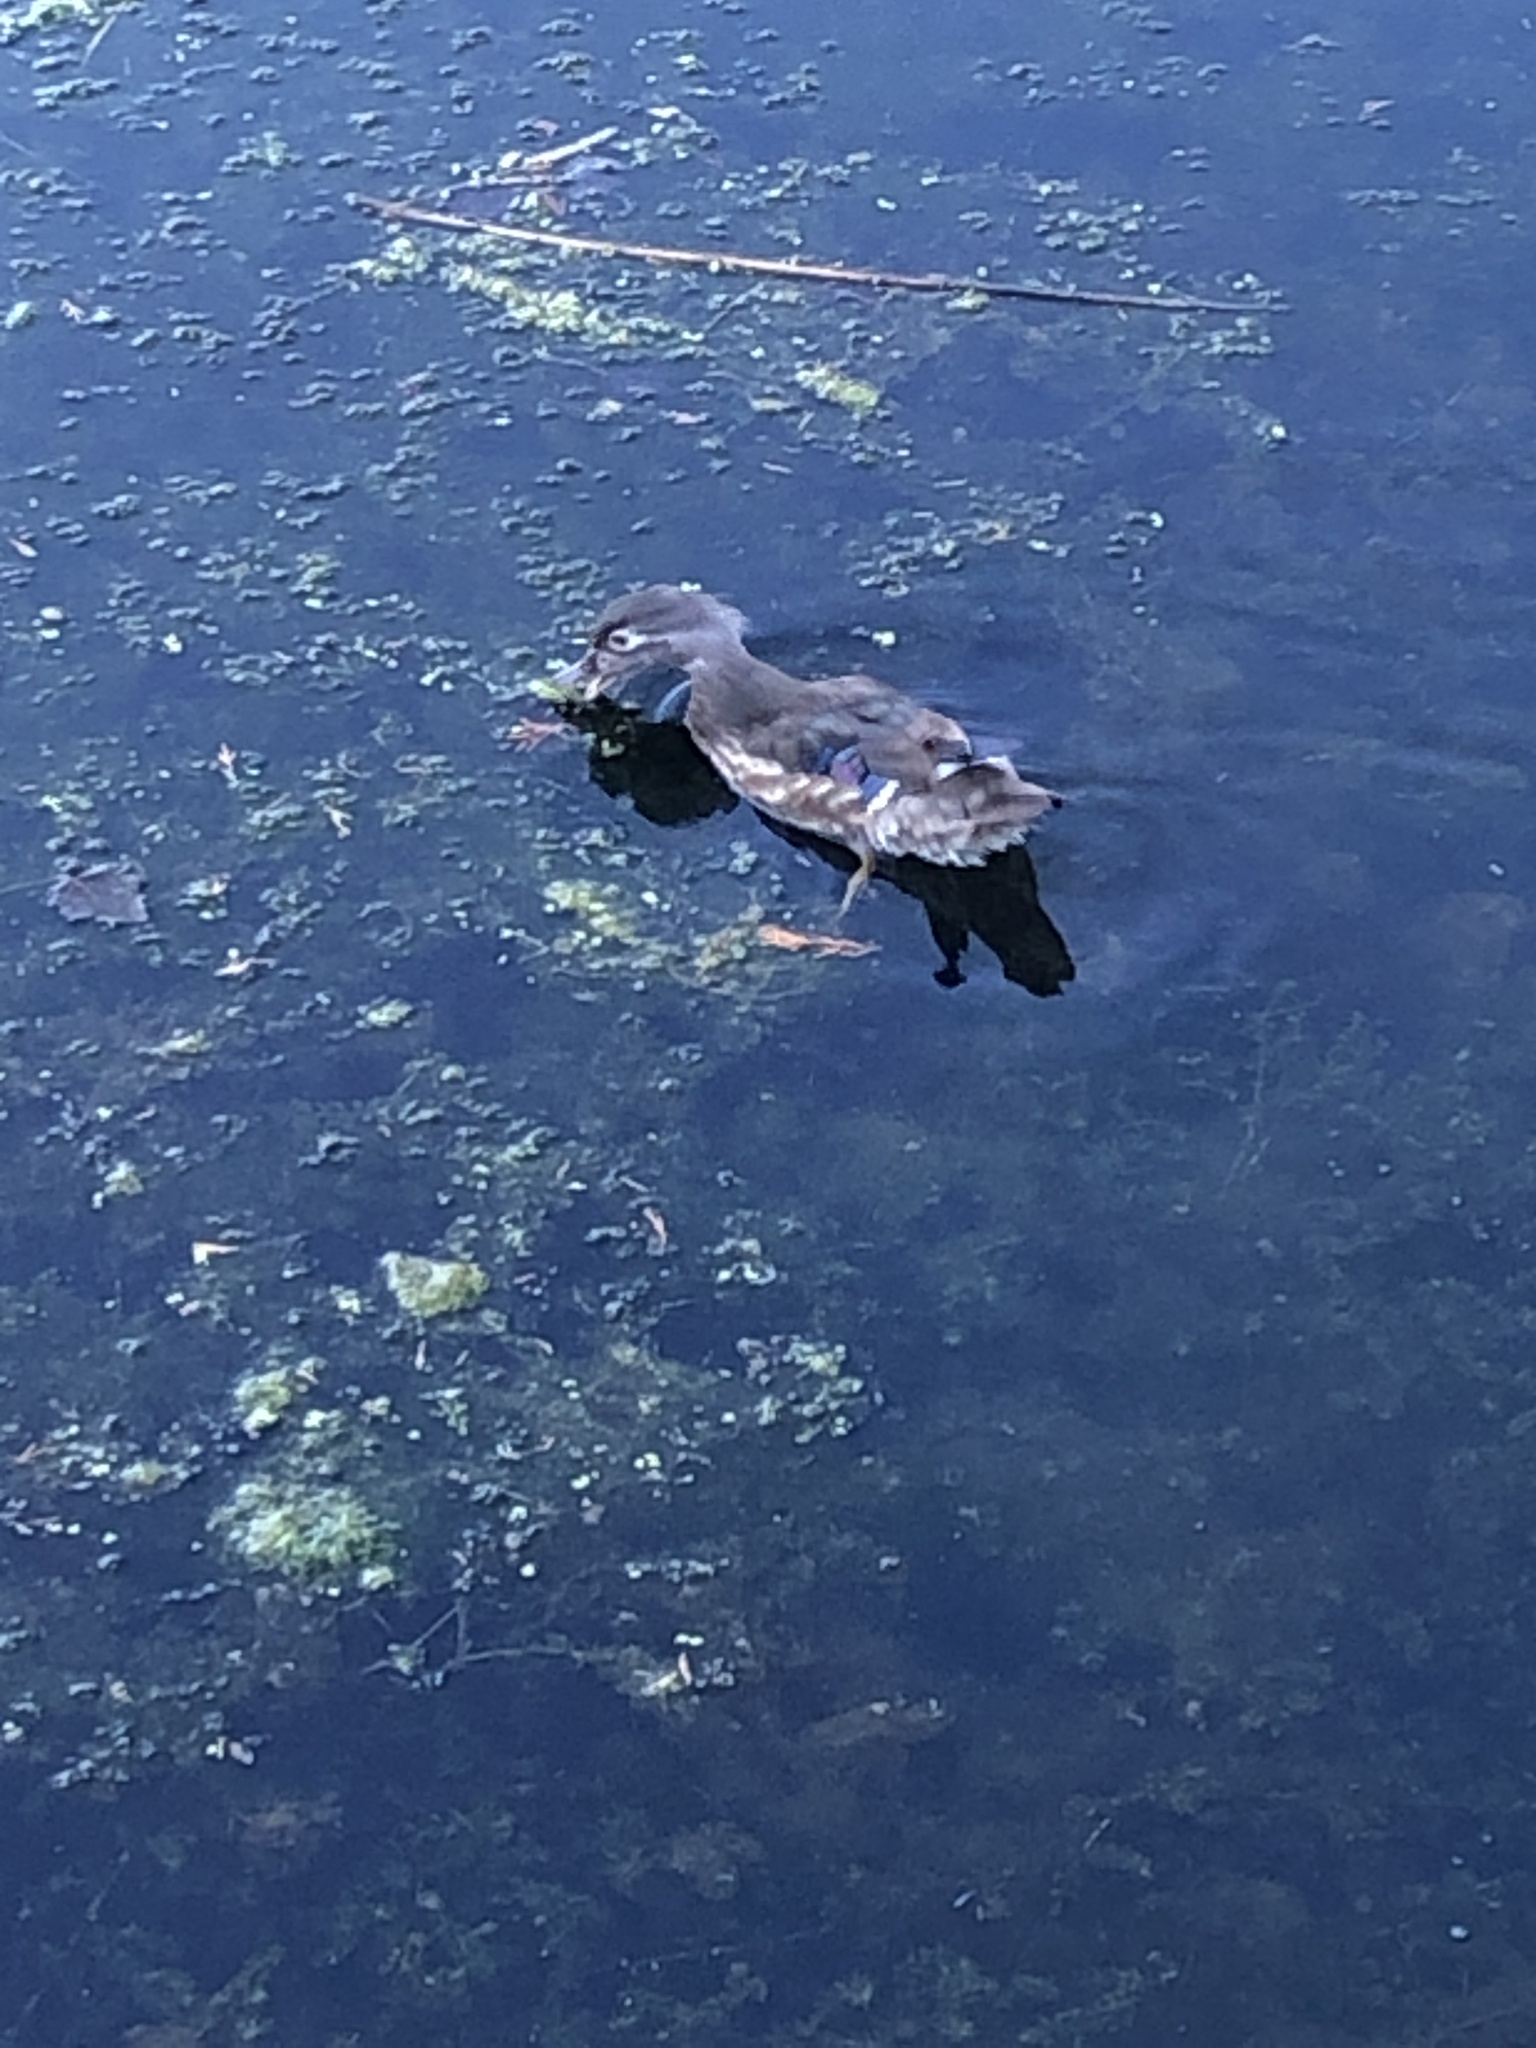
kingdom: Animalia
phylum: Chordata
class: Aves
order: Anseriformes
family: Anatidae
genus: Aix
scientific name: Aix sponsa
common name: Wood duck
